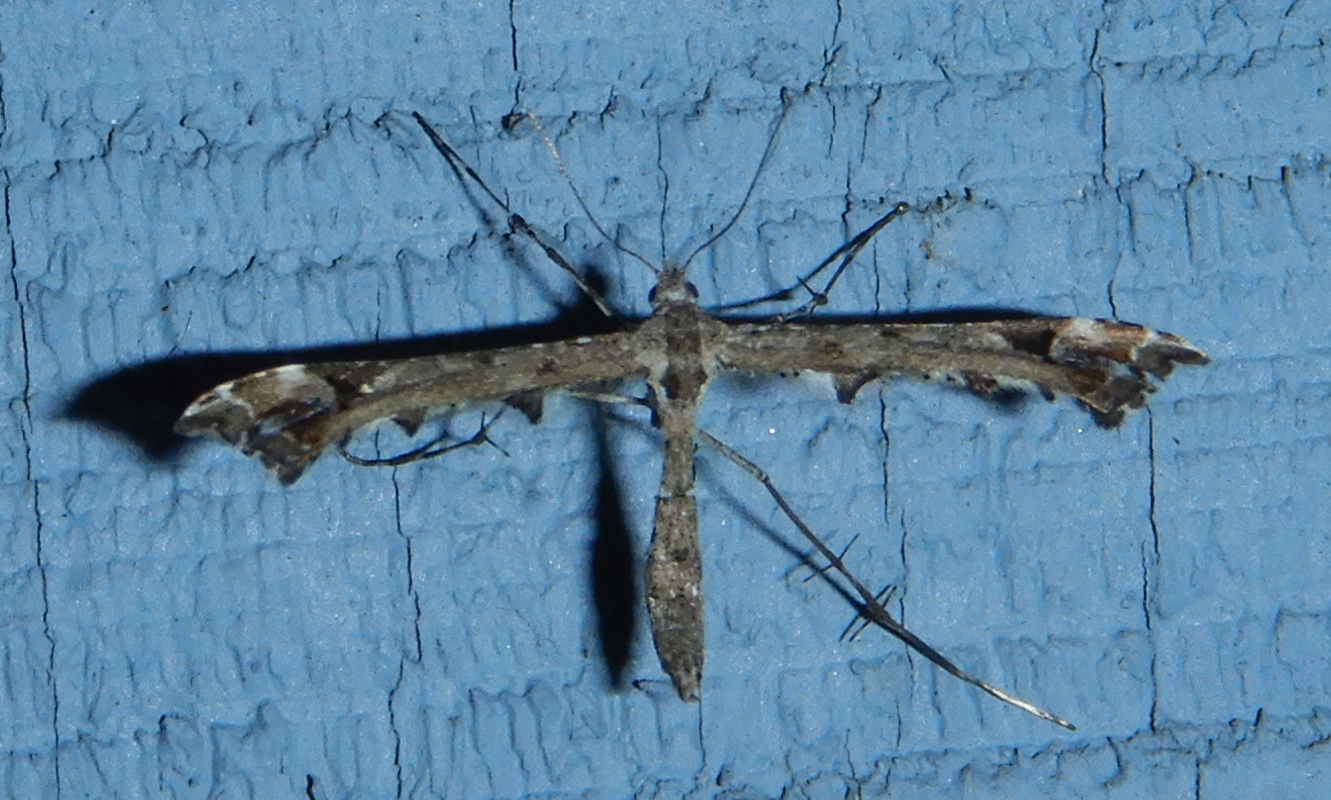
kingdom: Animalia
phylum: Arthropoda
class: Insecta
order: Lepidoptera
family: Pterophoridae
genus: Amblyptilia
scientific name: Amblyptilia pica
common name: Geranium plume moth
